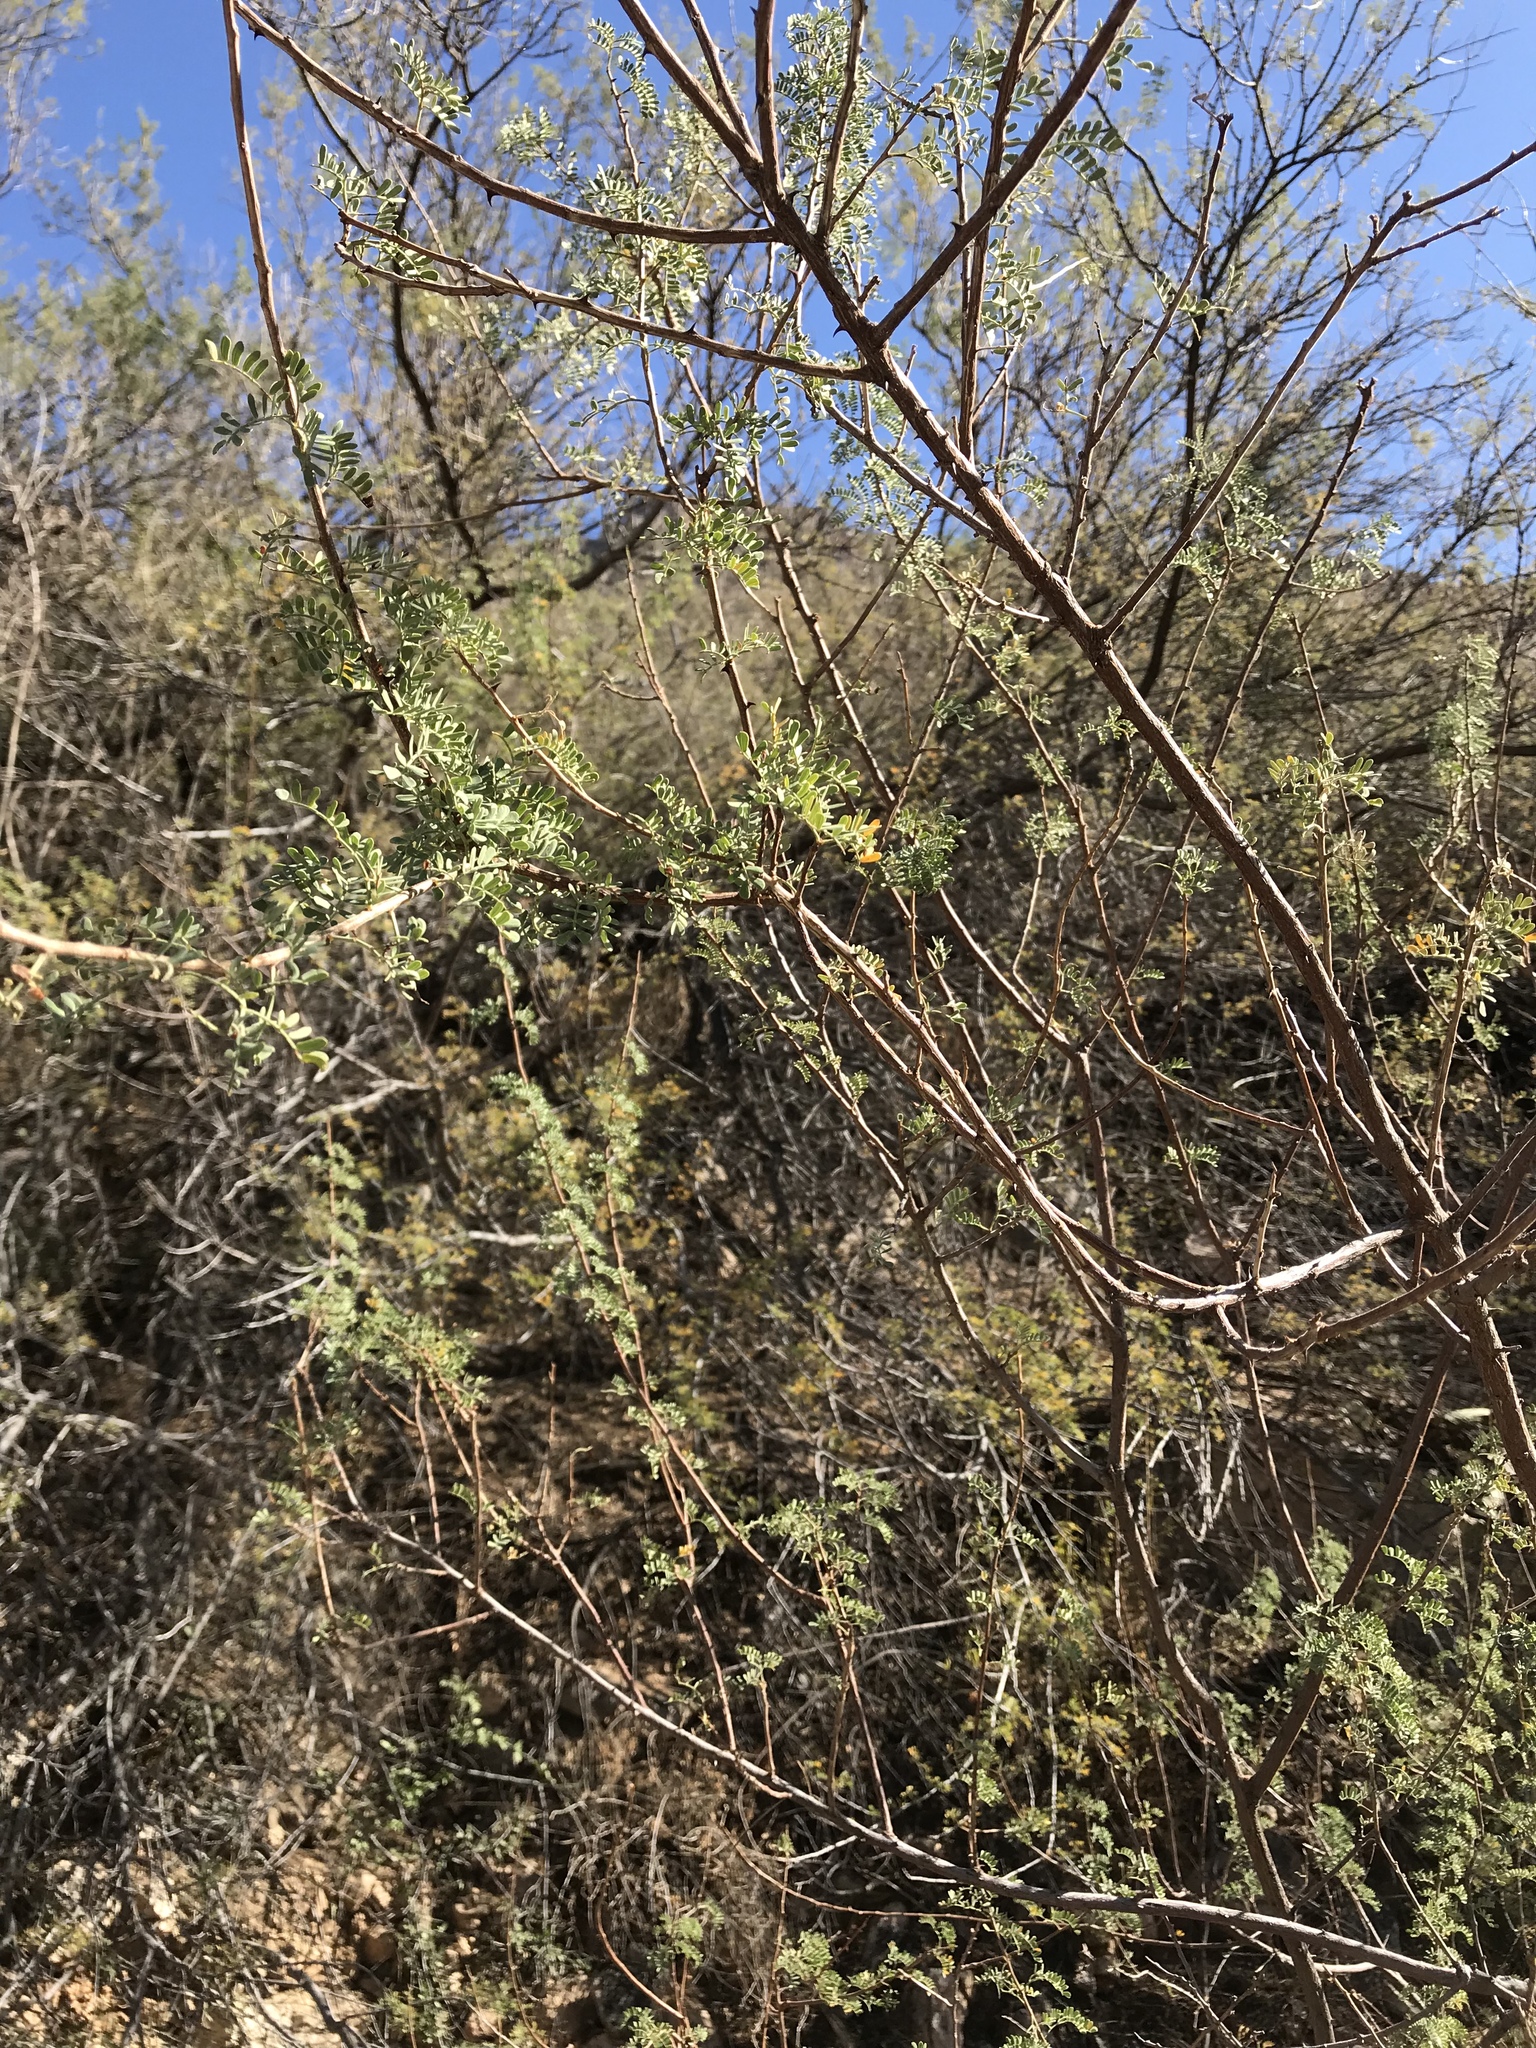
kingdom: Plantae
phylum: Tracheophyta
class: Magnoliopsida
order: Fabales
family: Fabaceae
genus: Senegalia
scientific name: Senegalia greggii
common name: Texas-mimosa
